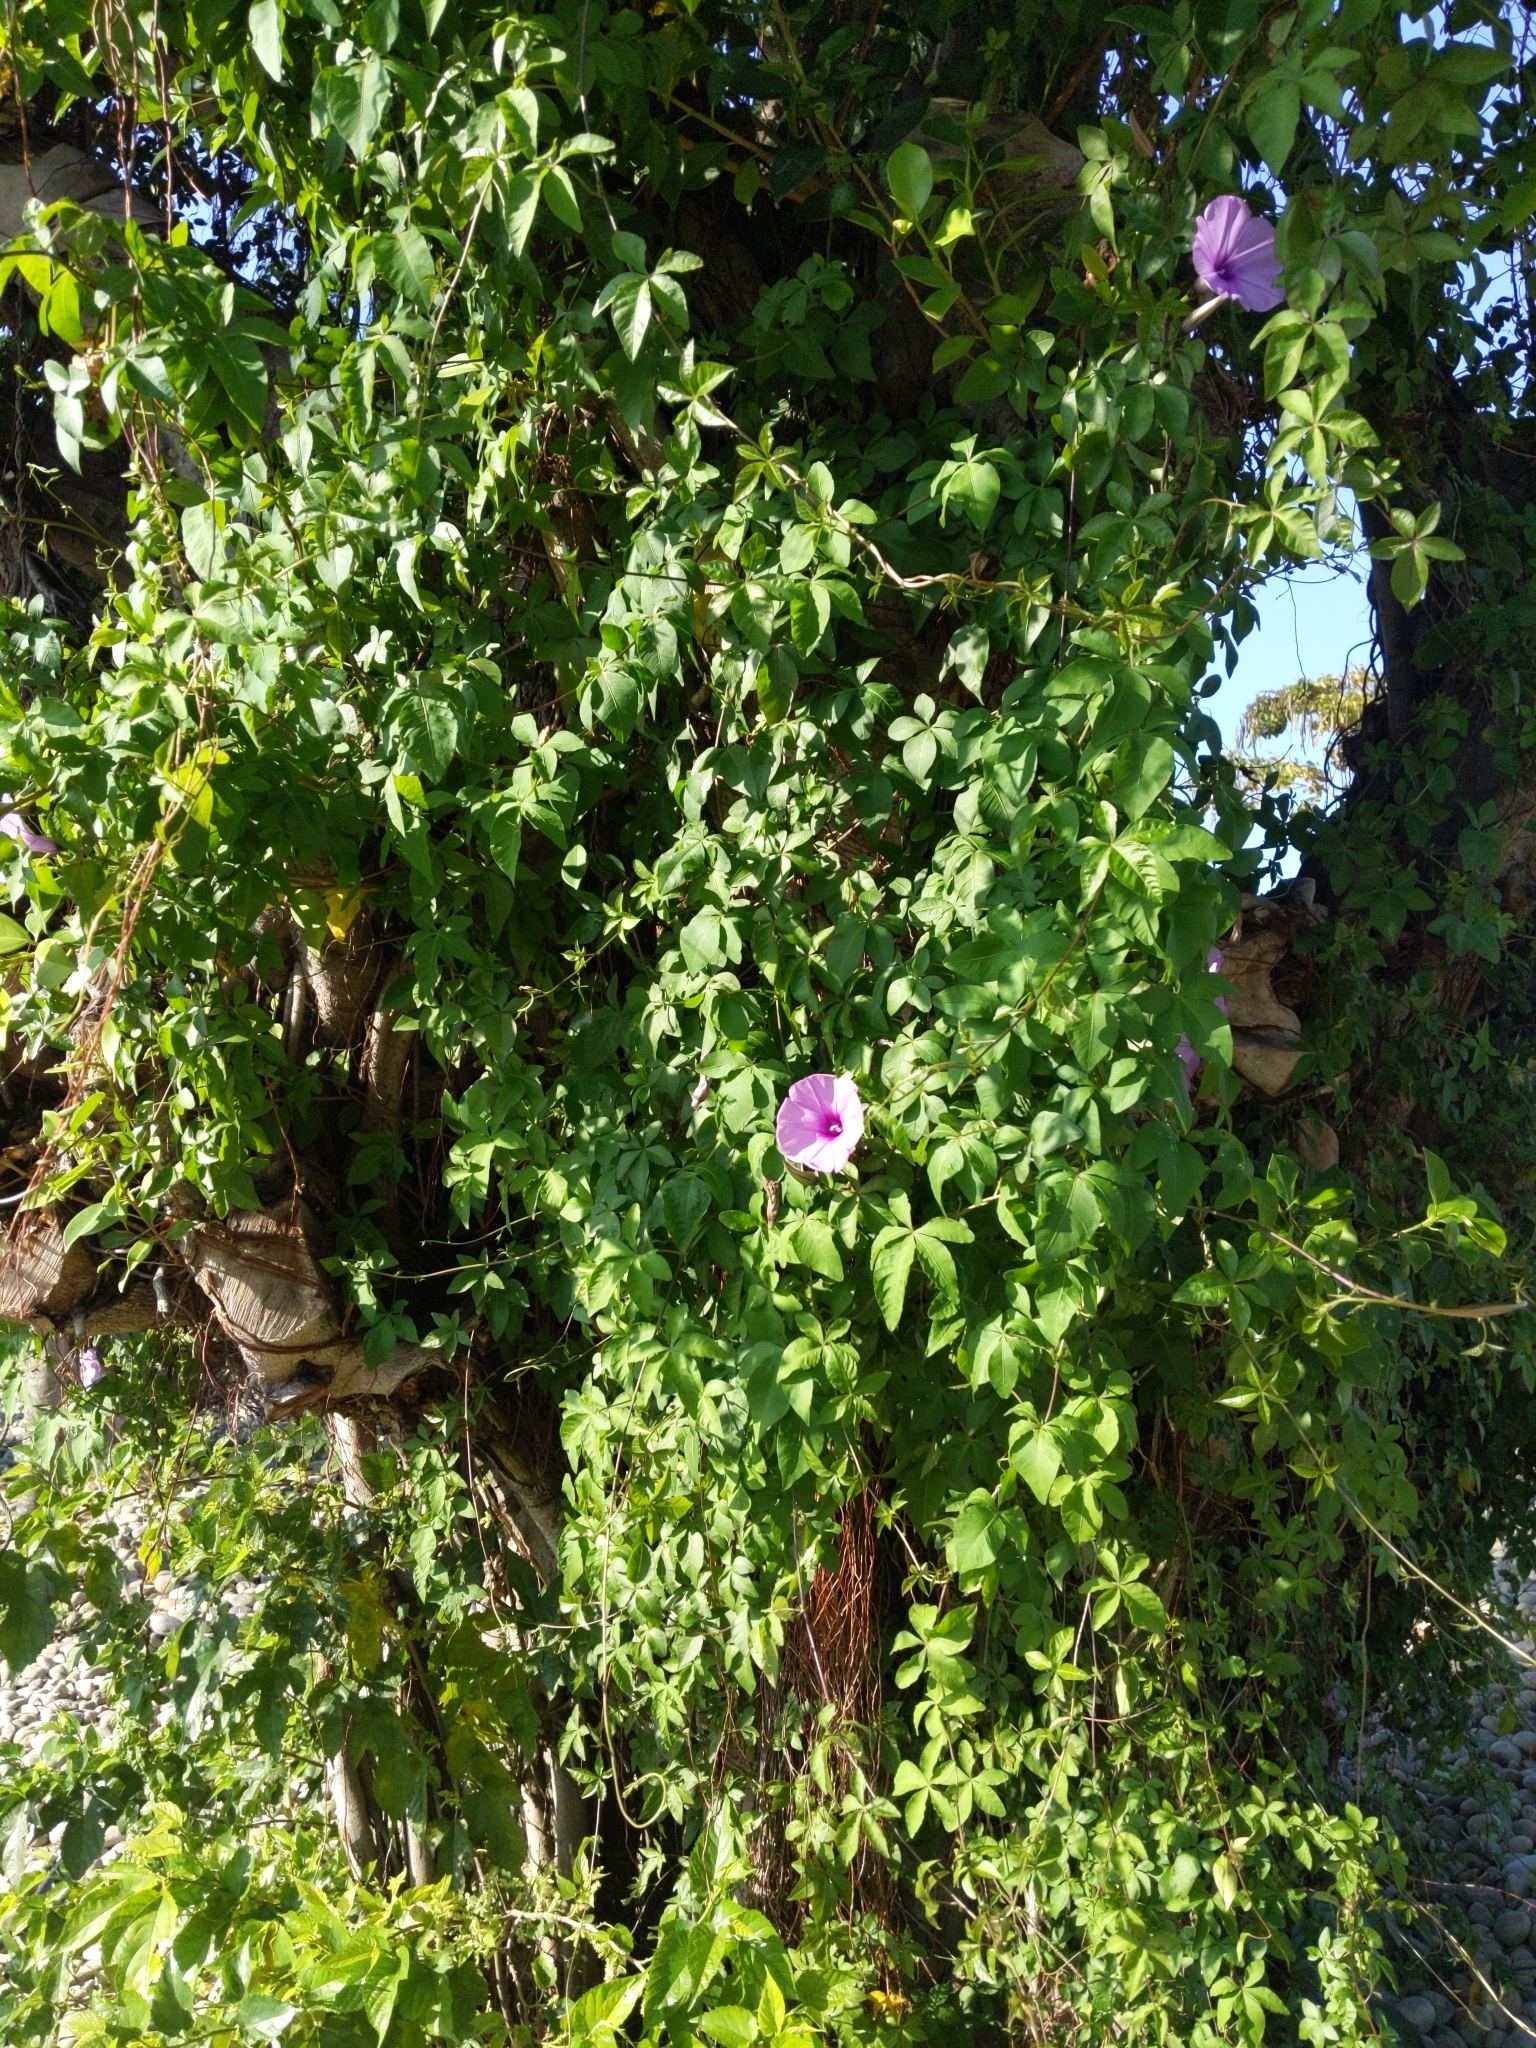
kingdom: Plantae
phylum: Tracheophyta
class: Magnoliopsida
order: Solanales
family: Convolvulaceae
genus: Ipomoea
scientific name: Ipomoea cairica
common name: Mile a minute vine
